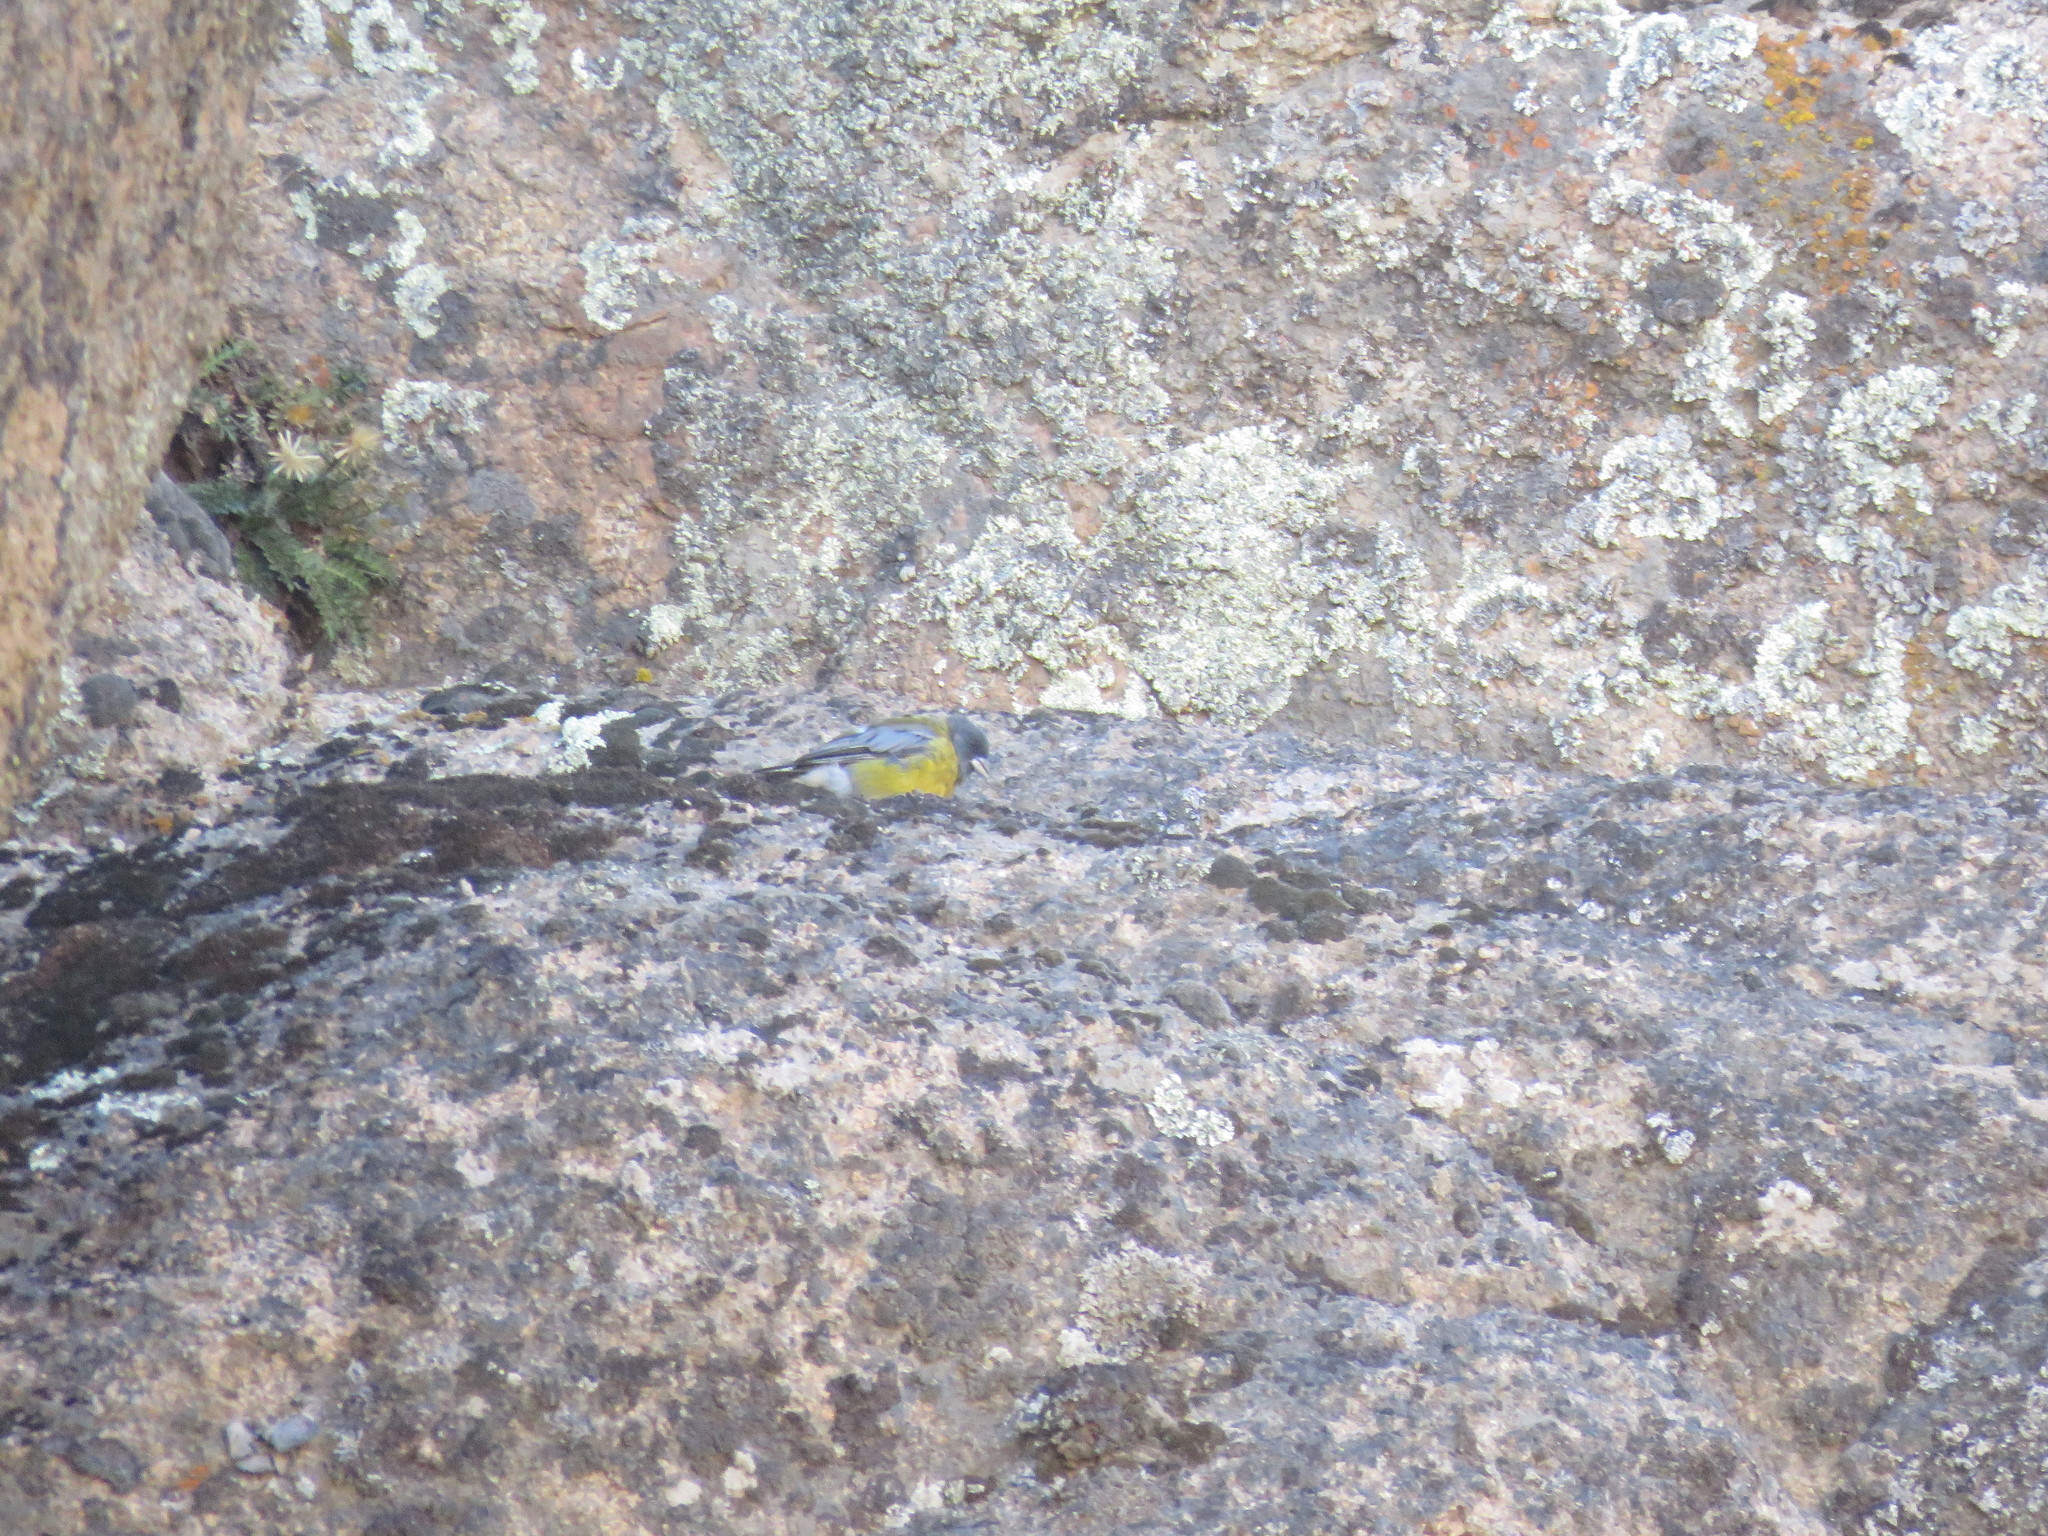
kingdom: Animalia
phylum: Chordata
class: Aves
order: Passeriformes
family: Thraupidae
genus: Phrygilus
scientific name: Phrygilus gayi
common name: Grey-hooded sierra finch
